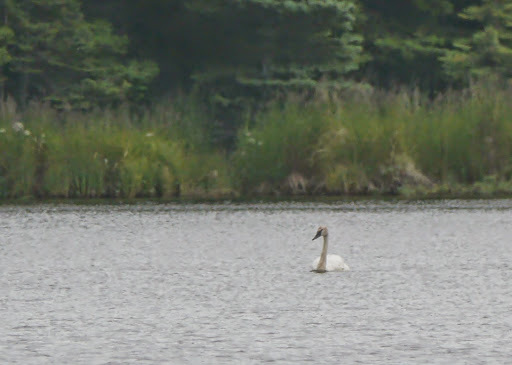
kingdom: Animalia
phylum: Chordata
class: Aves
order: Anseriformes
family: Anatidae
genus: Cygnus
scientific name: Cygnus columbianus
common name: Tundra swan
